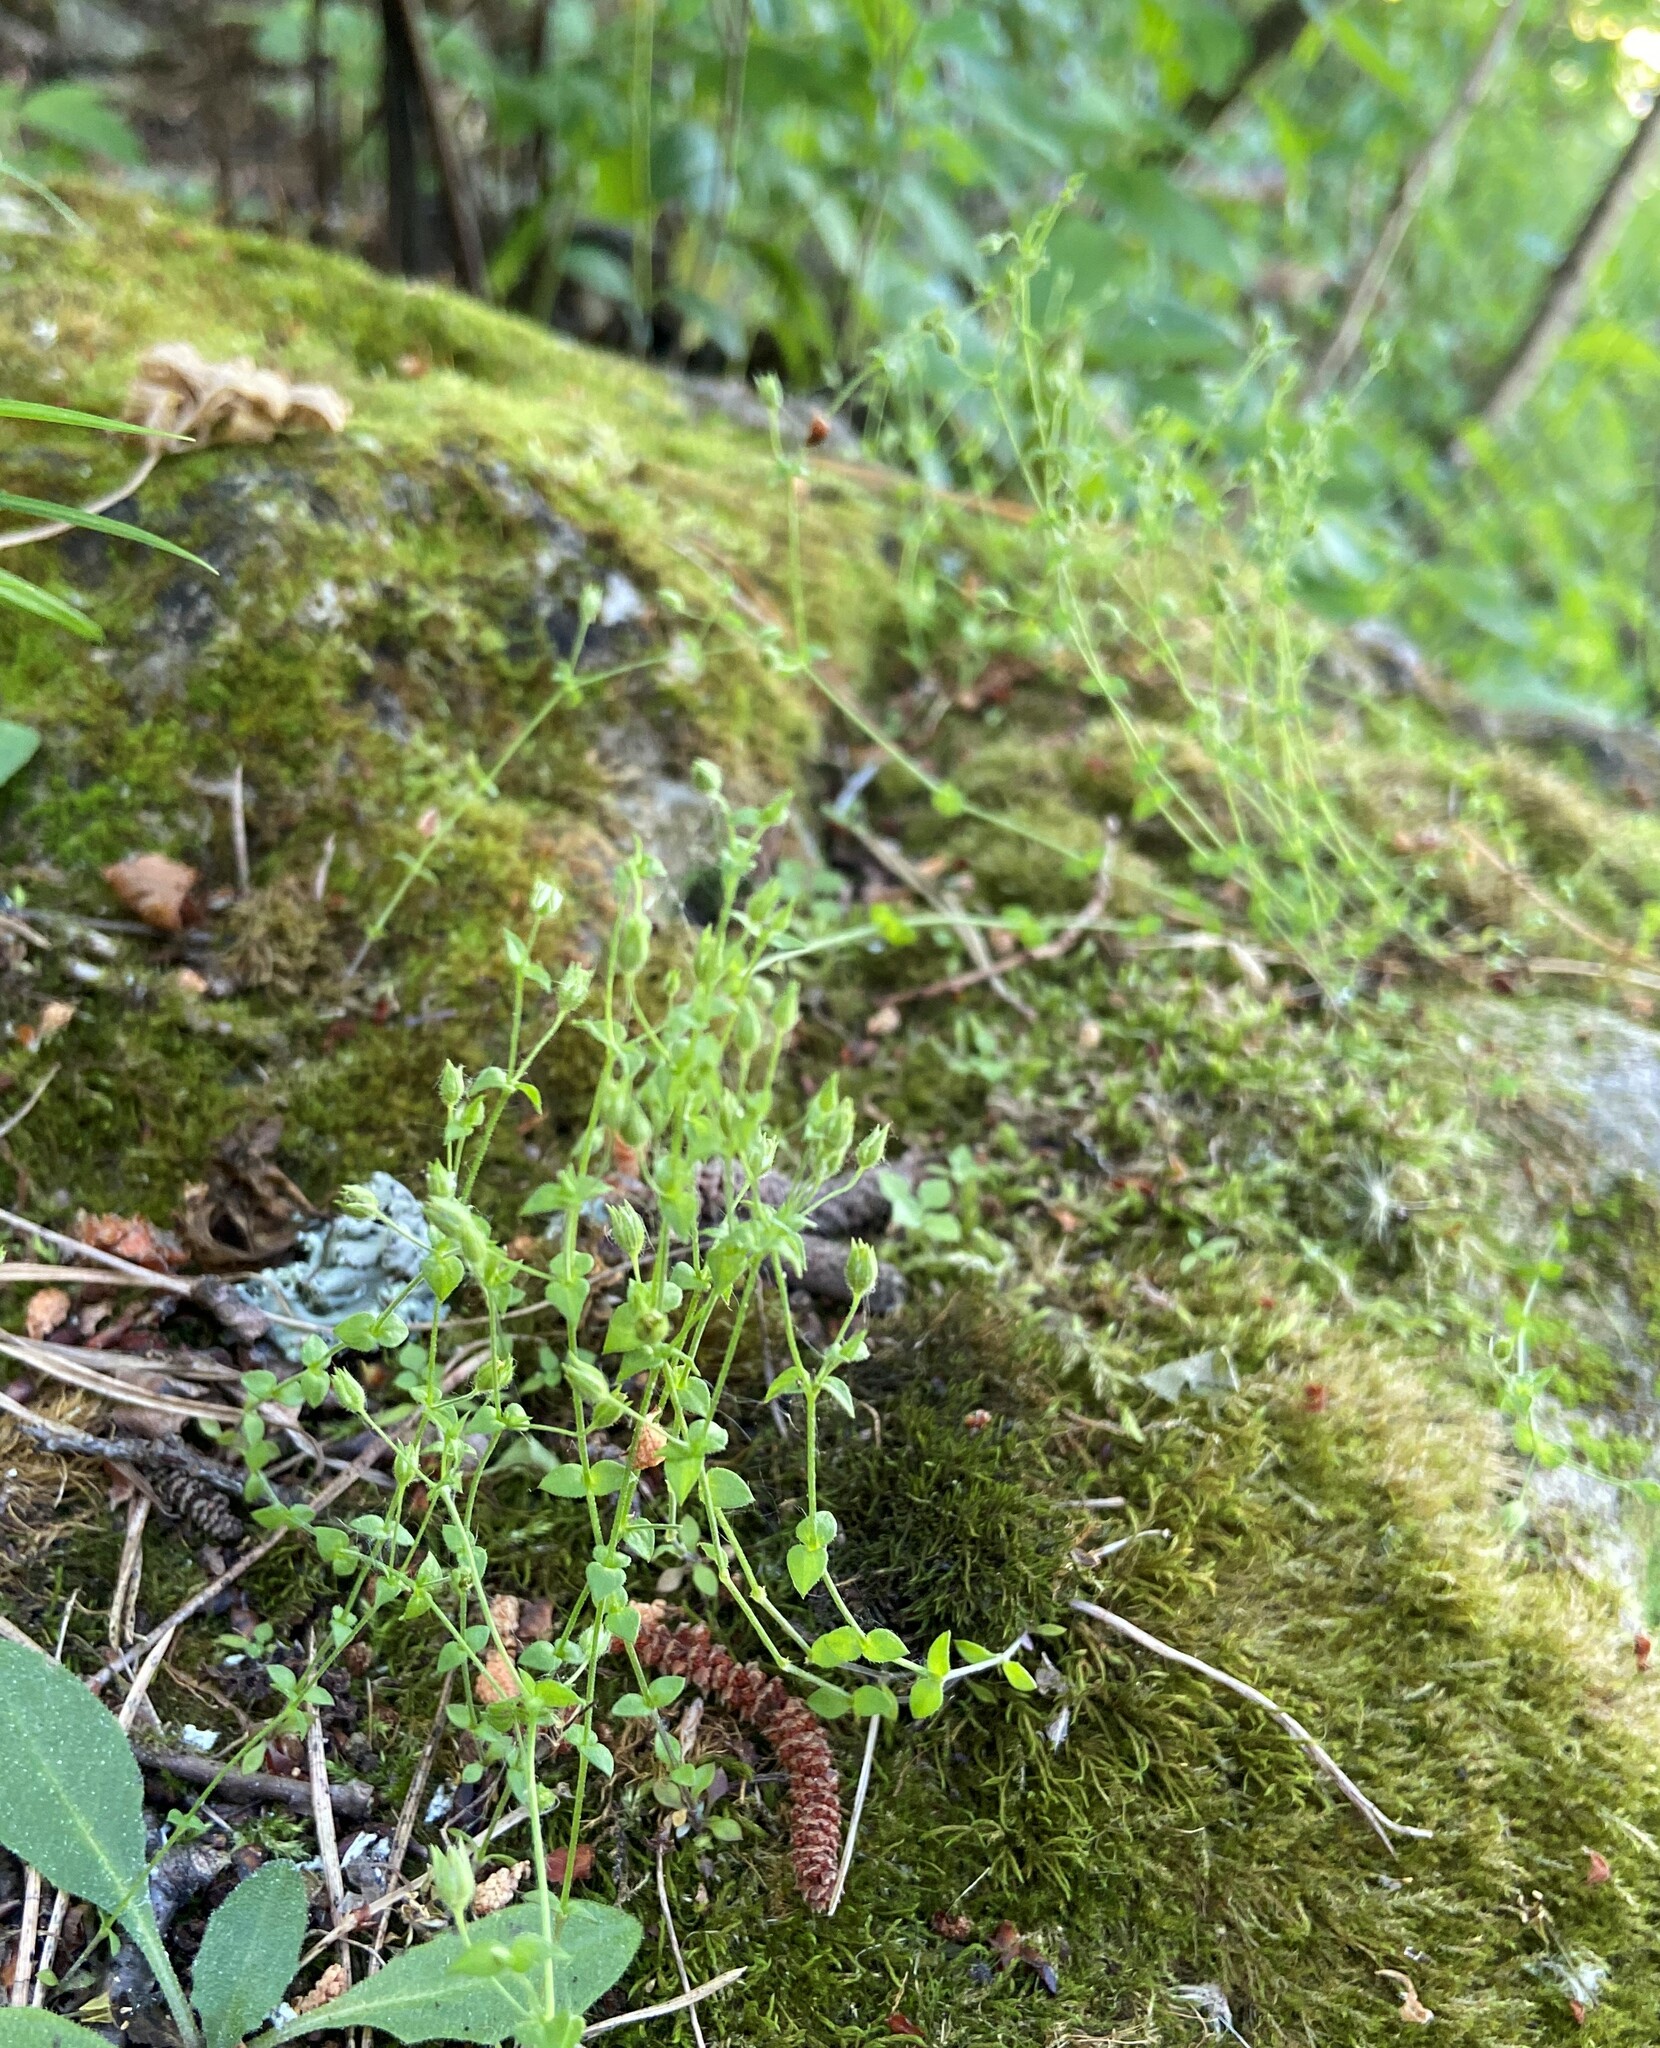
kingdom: Plantae
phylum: Tracheophyta
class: Magnoliopsida
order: Caryophyllales
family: Caryophyllaceae
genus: Arenaria
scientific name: Arenaria serpyllifolia
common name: Thyme-leaved sandwort
